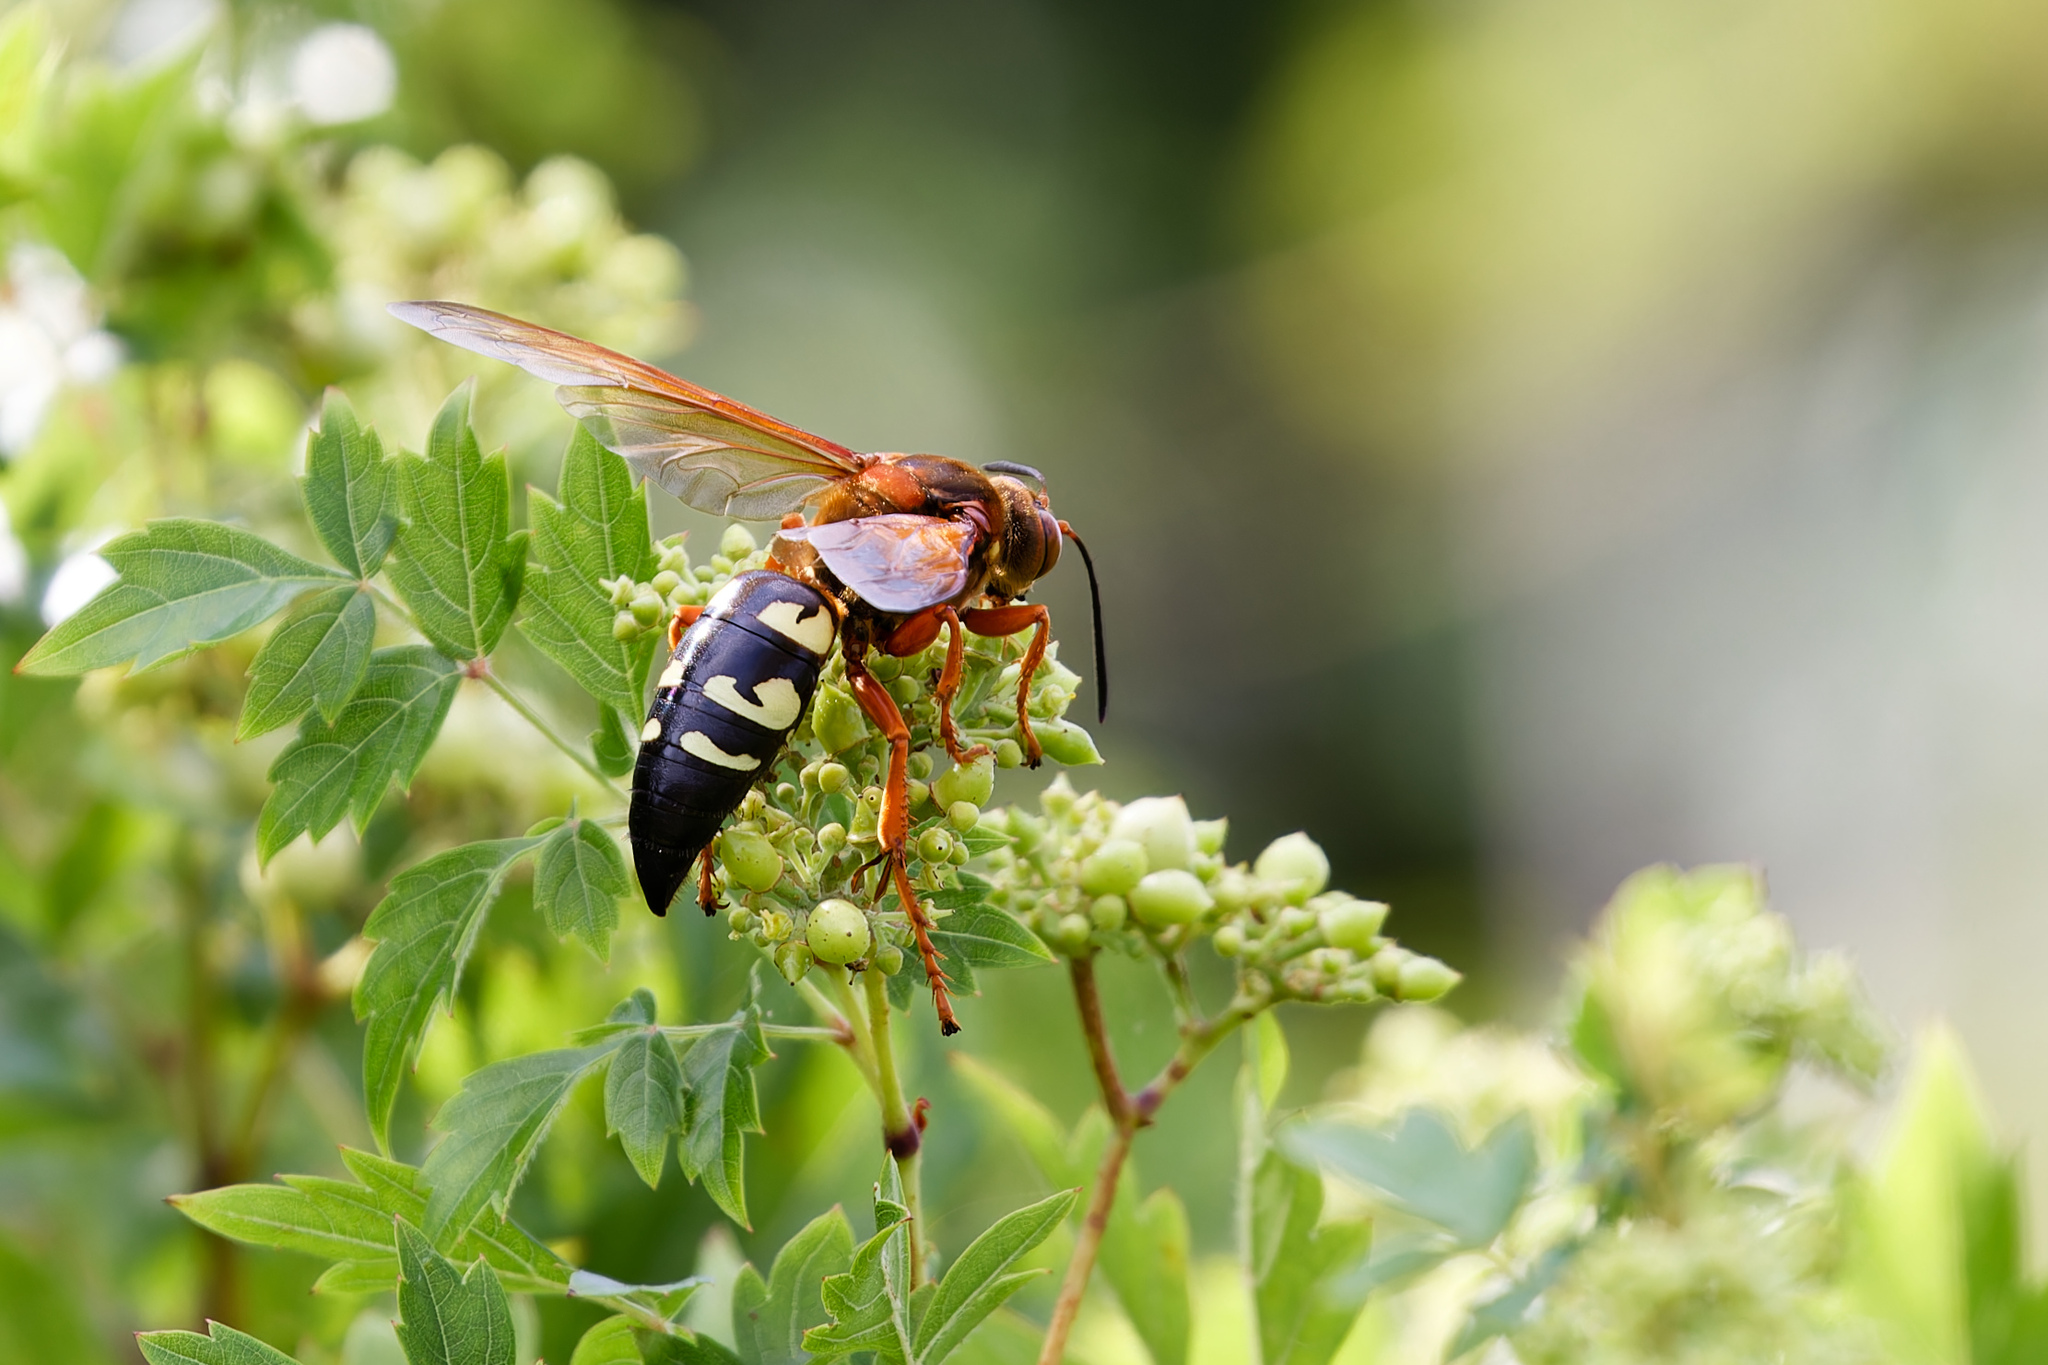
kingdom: Animalia
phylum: Arthropoda
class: Insecta
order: Hymenoptera
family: Crabronidae
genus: Sphecius
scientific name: Sphecius speciosus
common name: Cicada killer
